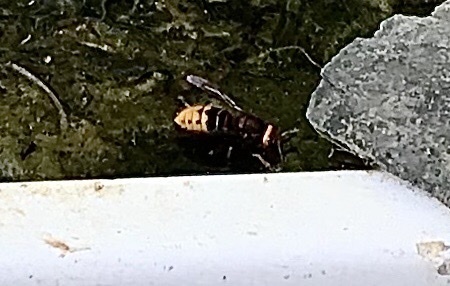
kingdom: Animalia
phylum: Arthropoda
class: Insecta
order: Hymenoptera
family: Vespidae
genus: Vespa
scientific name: Vespa crabro
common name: Hornet
